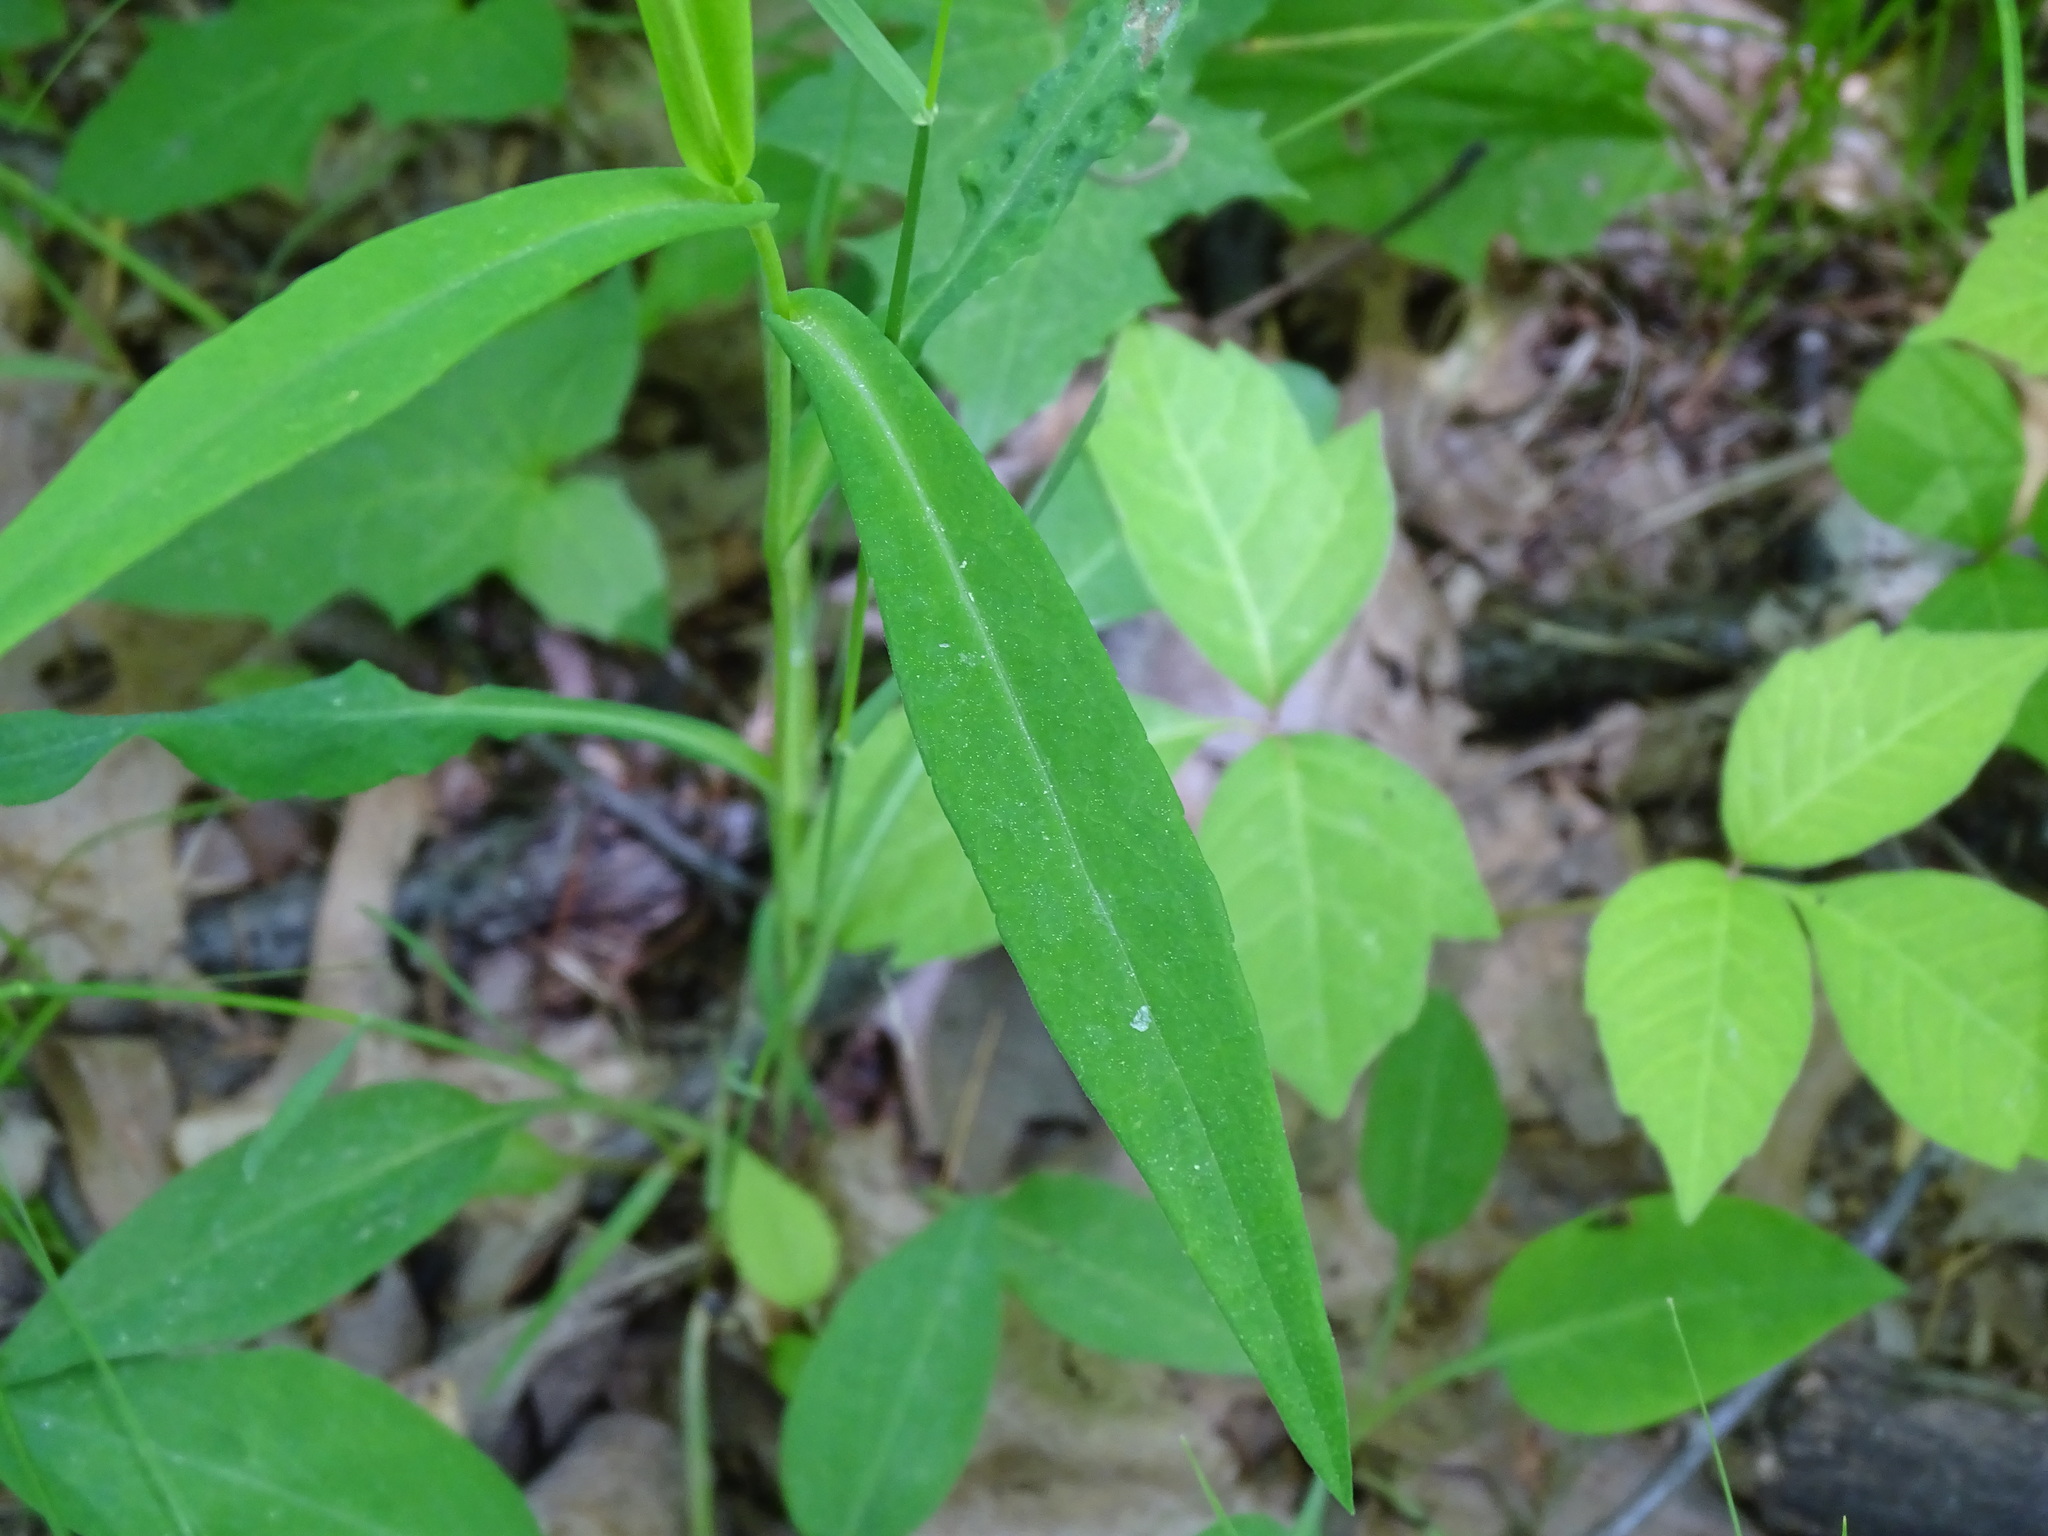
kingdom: Plantae
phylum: Tracheophyta
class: Magnoliopsida
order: Asterales
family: Asteraceae
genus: Symphyotrichum
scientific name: Symphyotrichum laeve
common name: Glaucous aster
